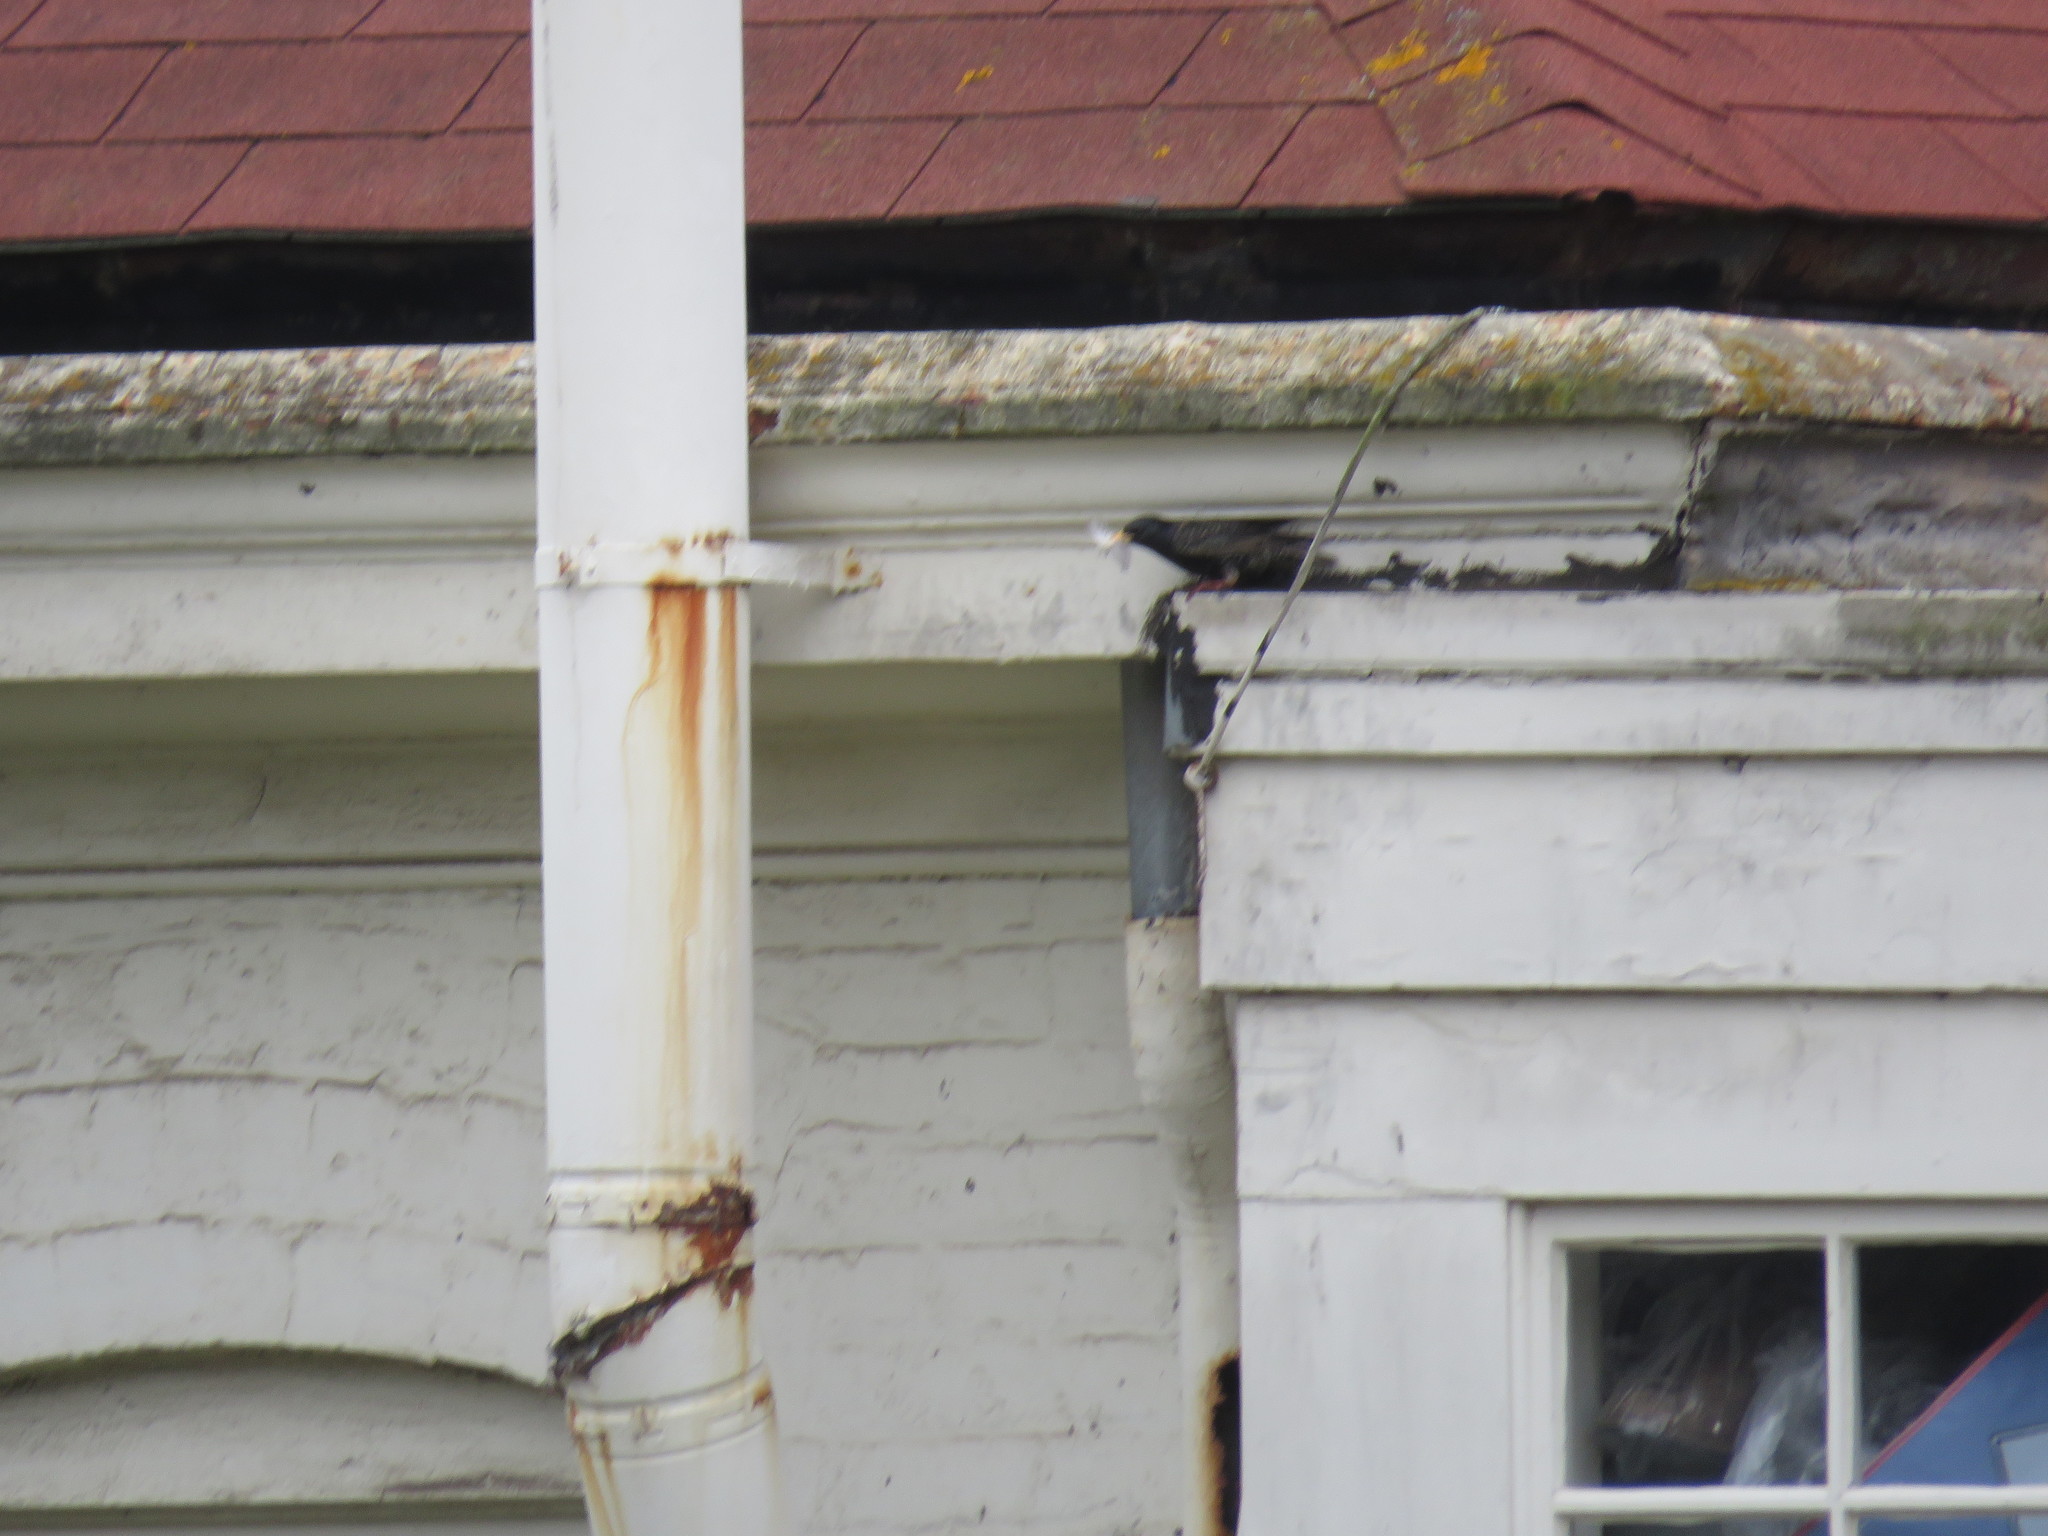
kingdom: Animalia
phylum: Chordata
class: Aves
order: Passeriformes
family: Sturnidae
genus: Sturnus
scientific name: Sturnus vulgaris
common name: Common starling
